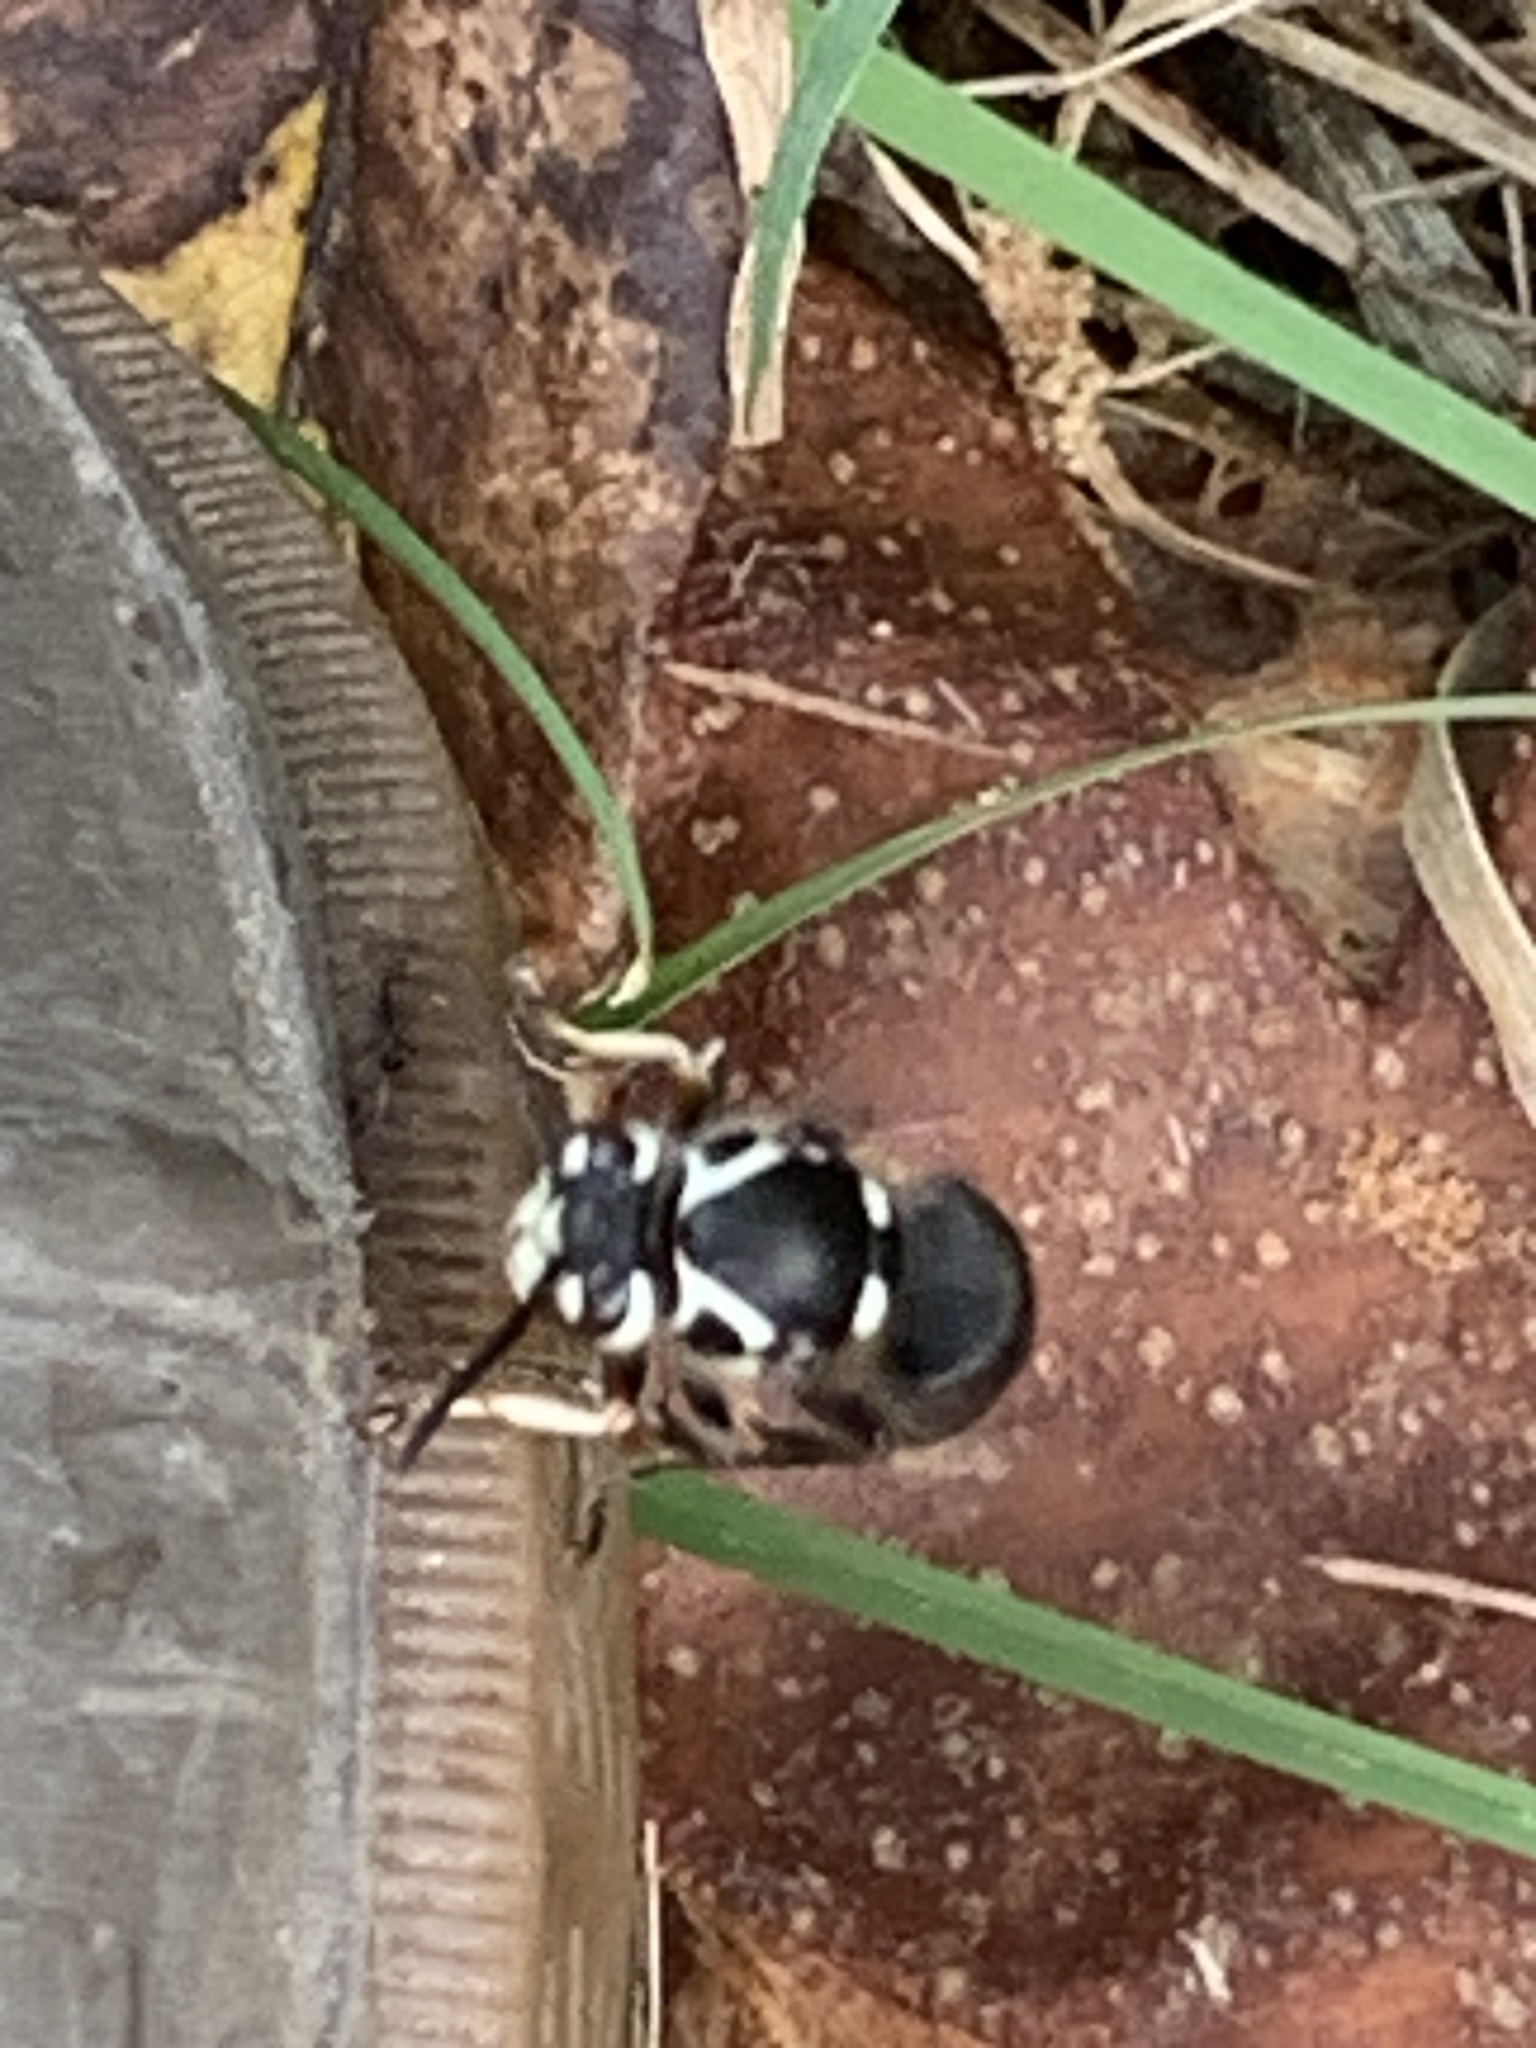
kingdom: Animalia
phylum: Arthropoda
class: Insecta
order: Hymenoptera
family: Vespidae
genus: Dolichovespula
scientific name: Dolichovespula maculata
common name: Bald-faced hornet
